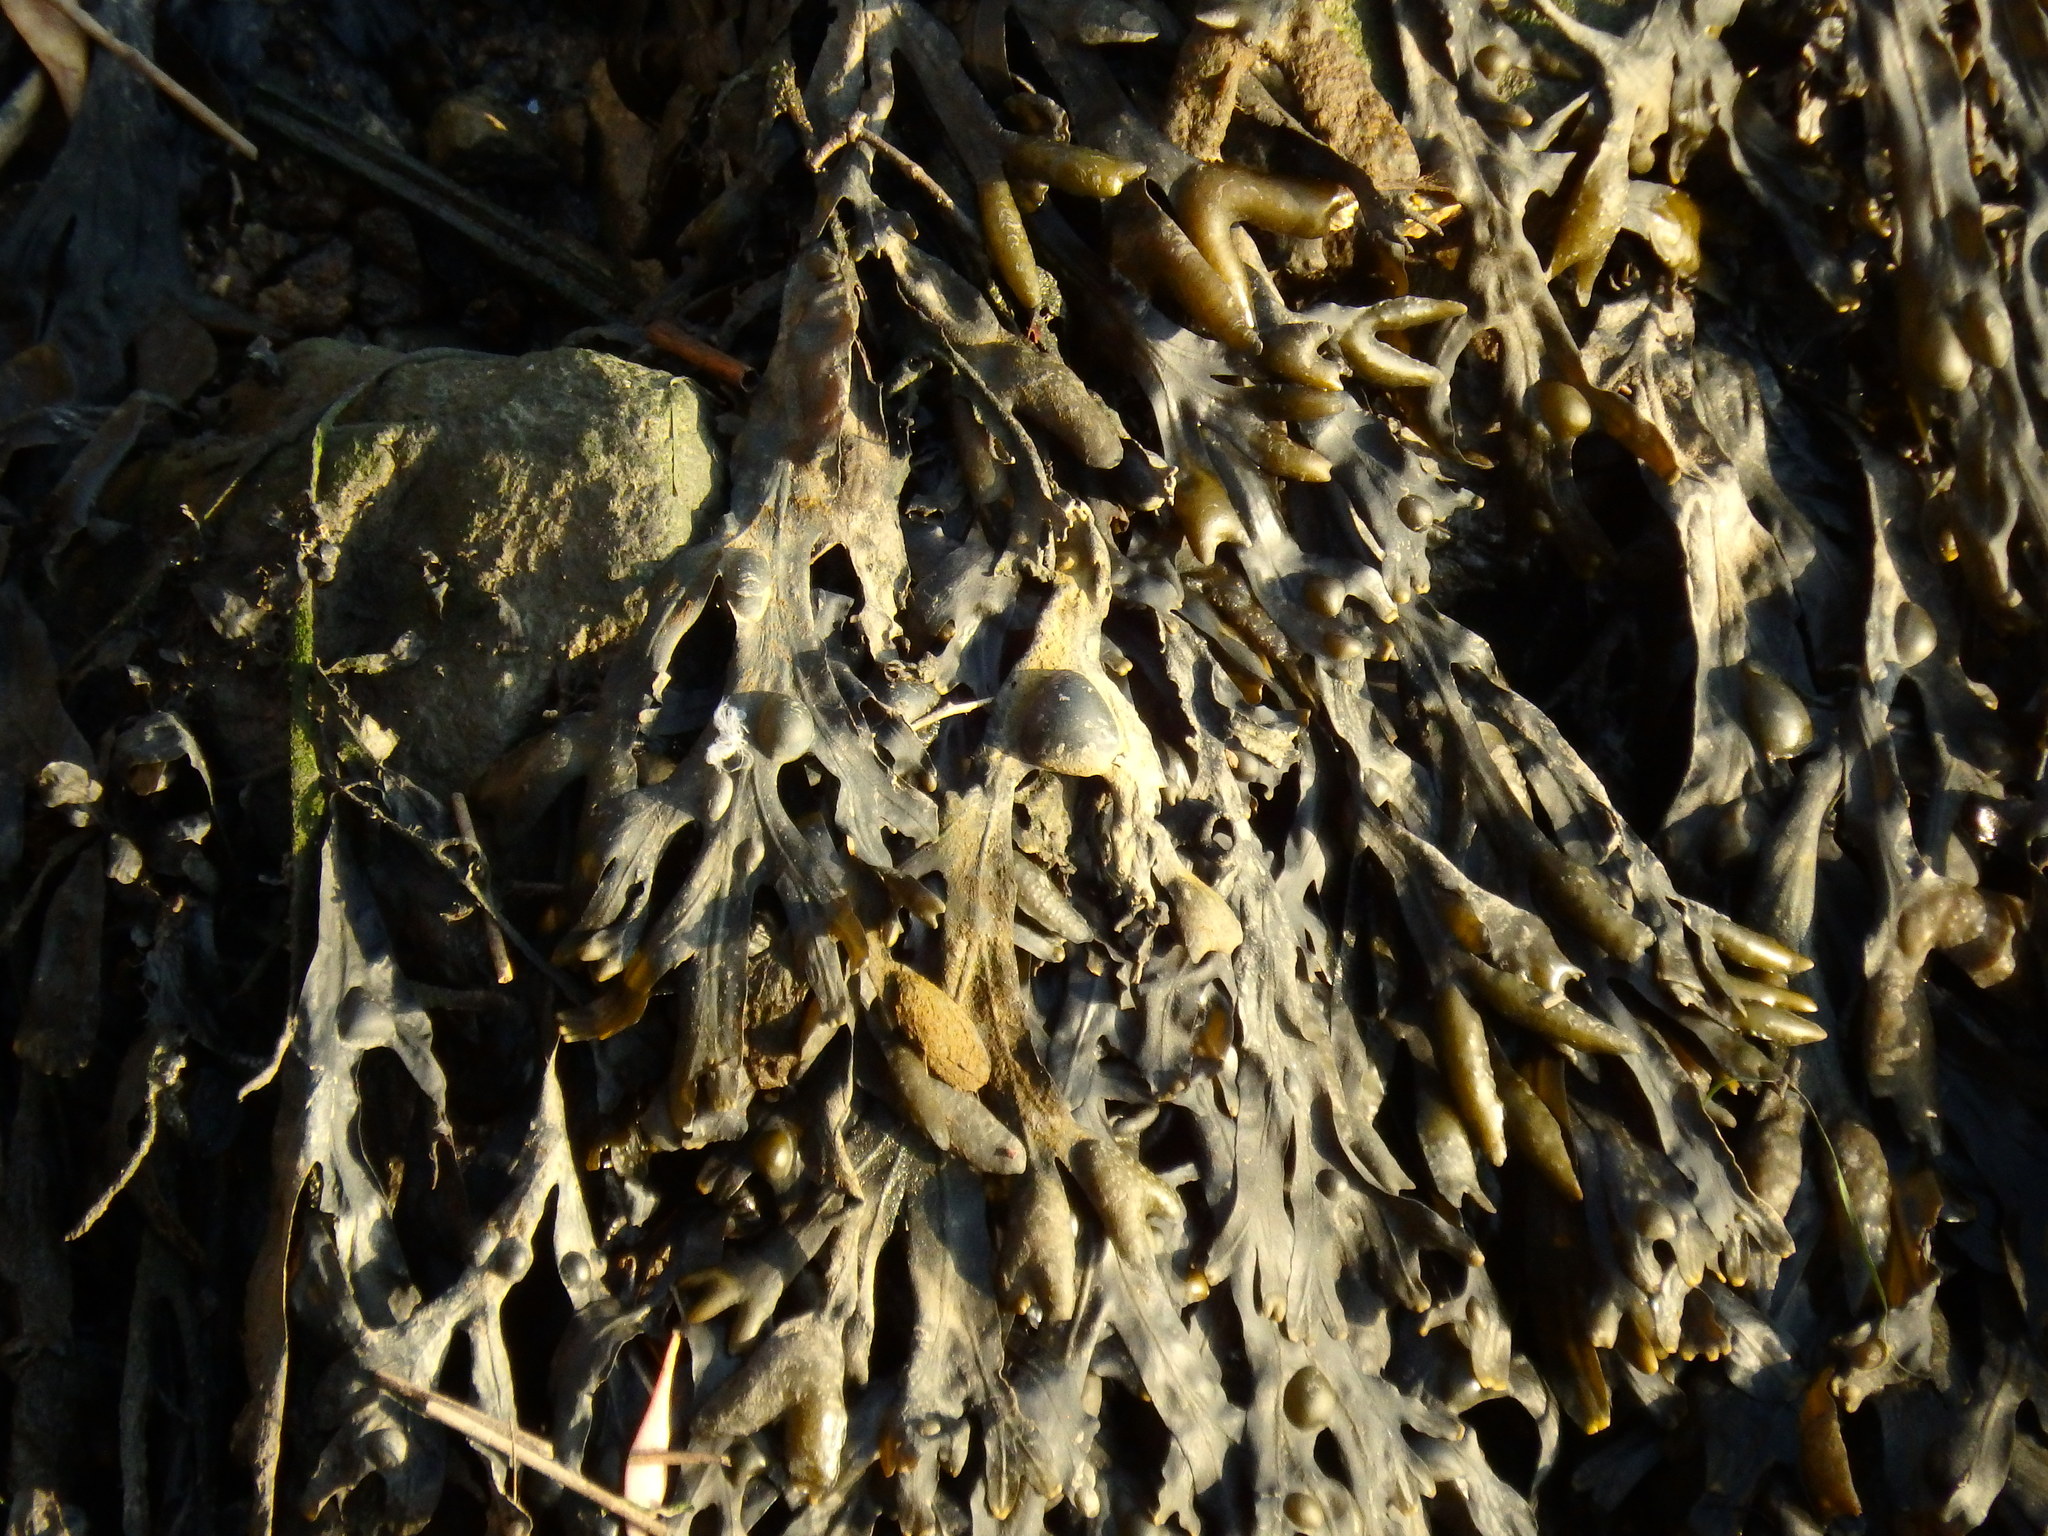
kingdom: Chromista
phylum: Ochrophyta
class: Phaeophyceae
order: Fucales
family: Fucaceae
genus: Fucus
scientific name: Fucus vesiculosus
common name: Bladder wrack
